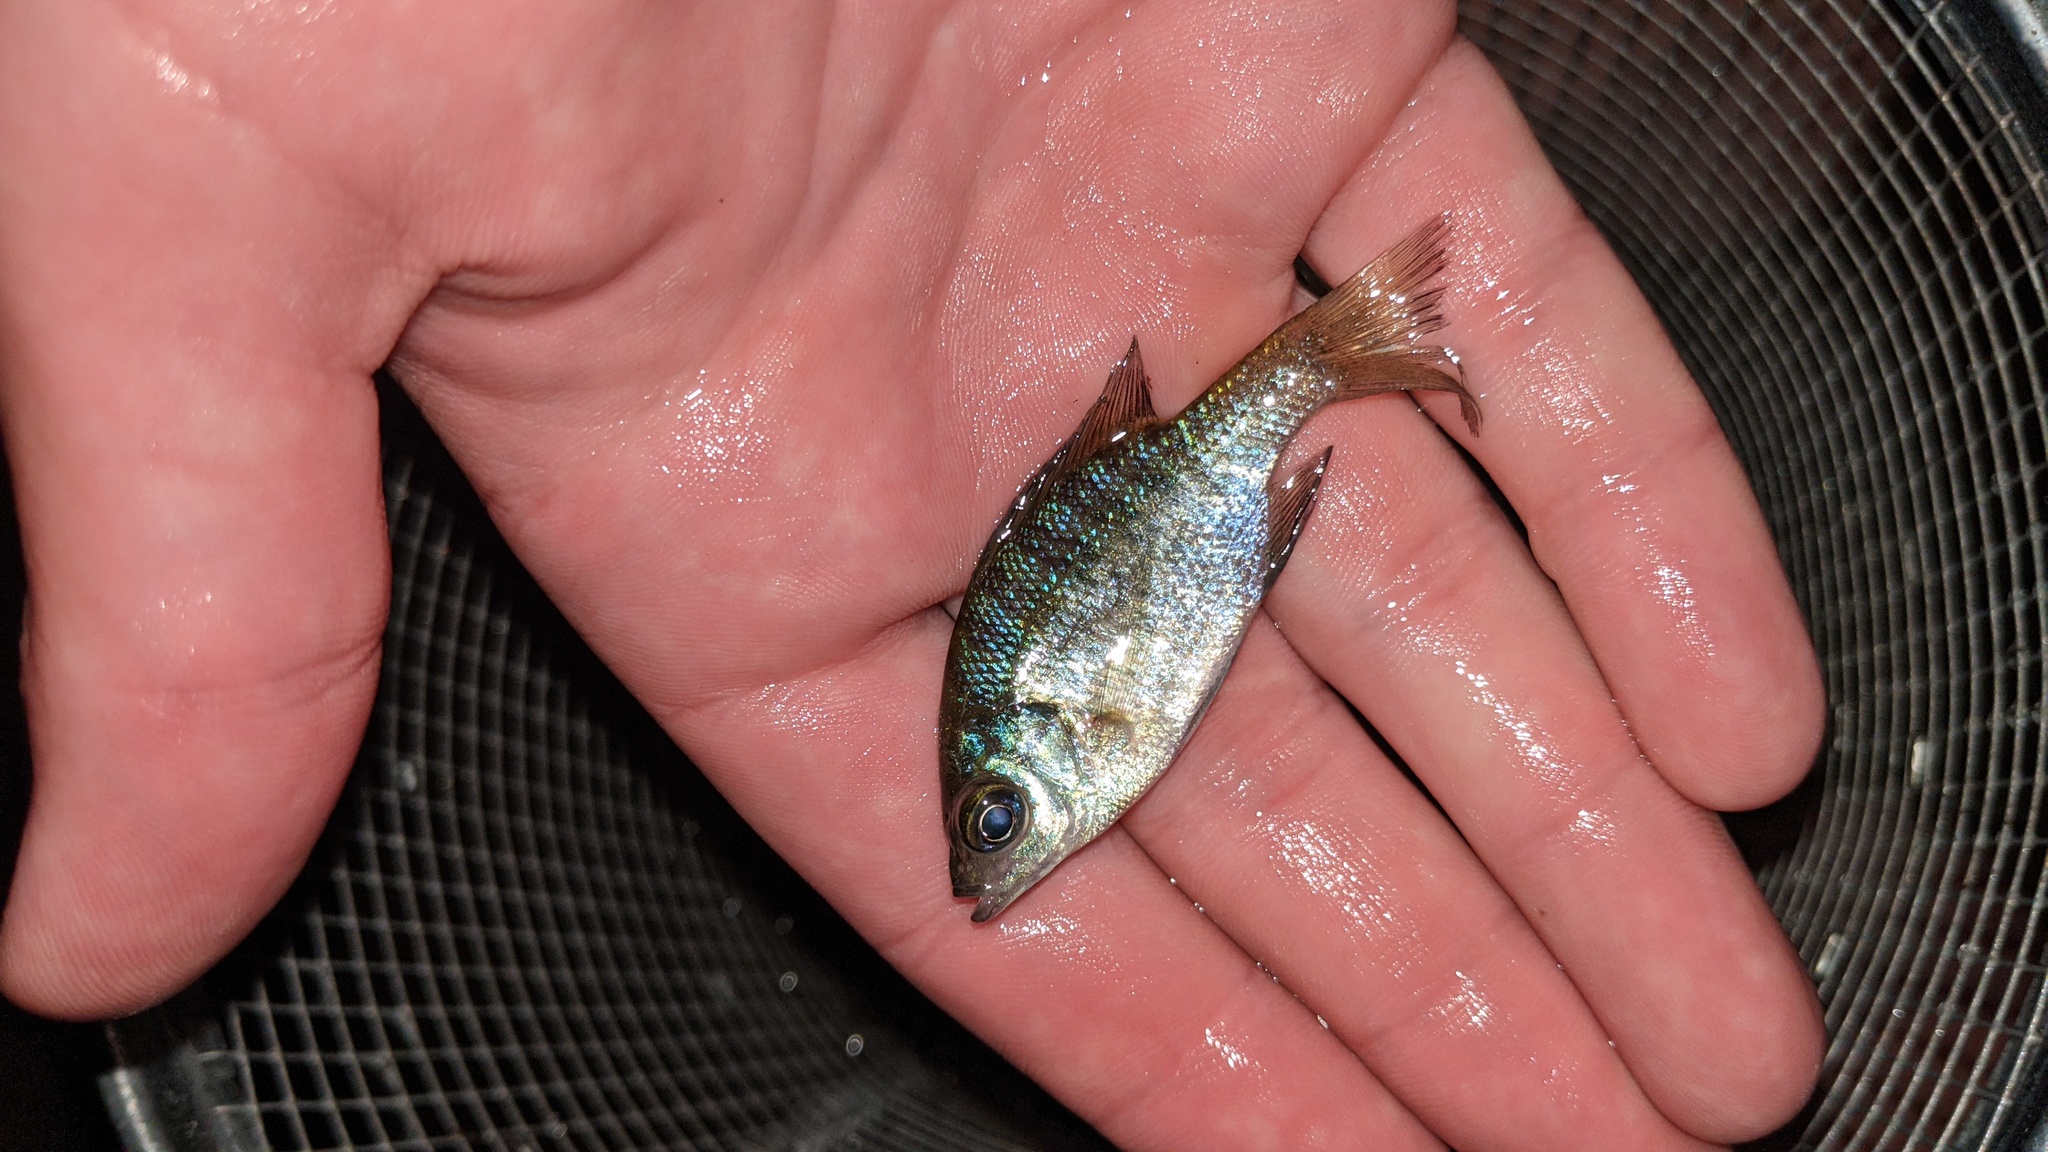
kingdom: Animalia
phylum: Chordata
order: Perciformes
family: Centrarchidae
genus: Lepomis
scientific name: Lepomis macrochirus
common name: Bluegill
